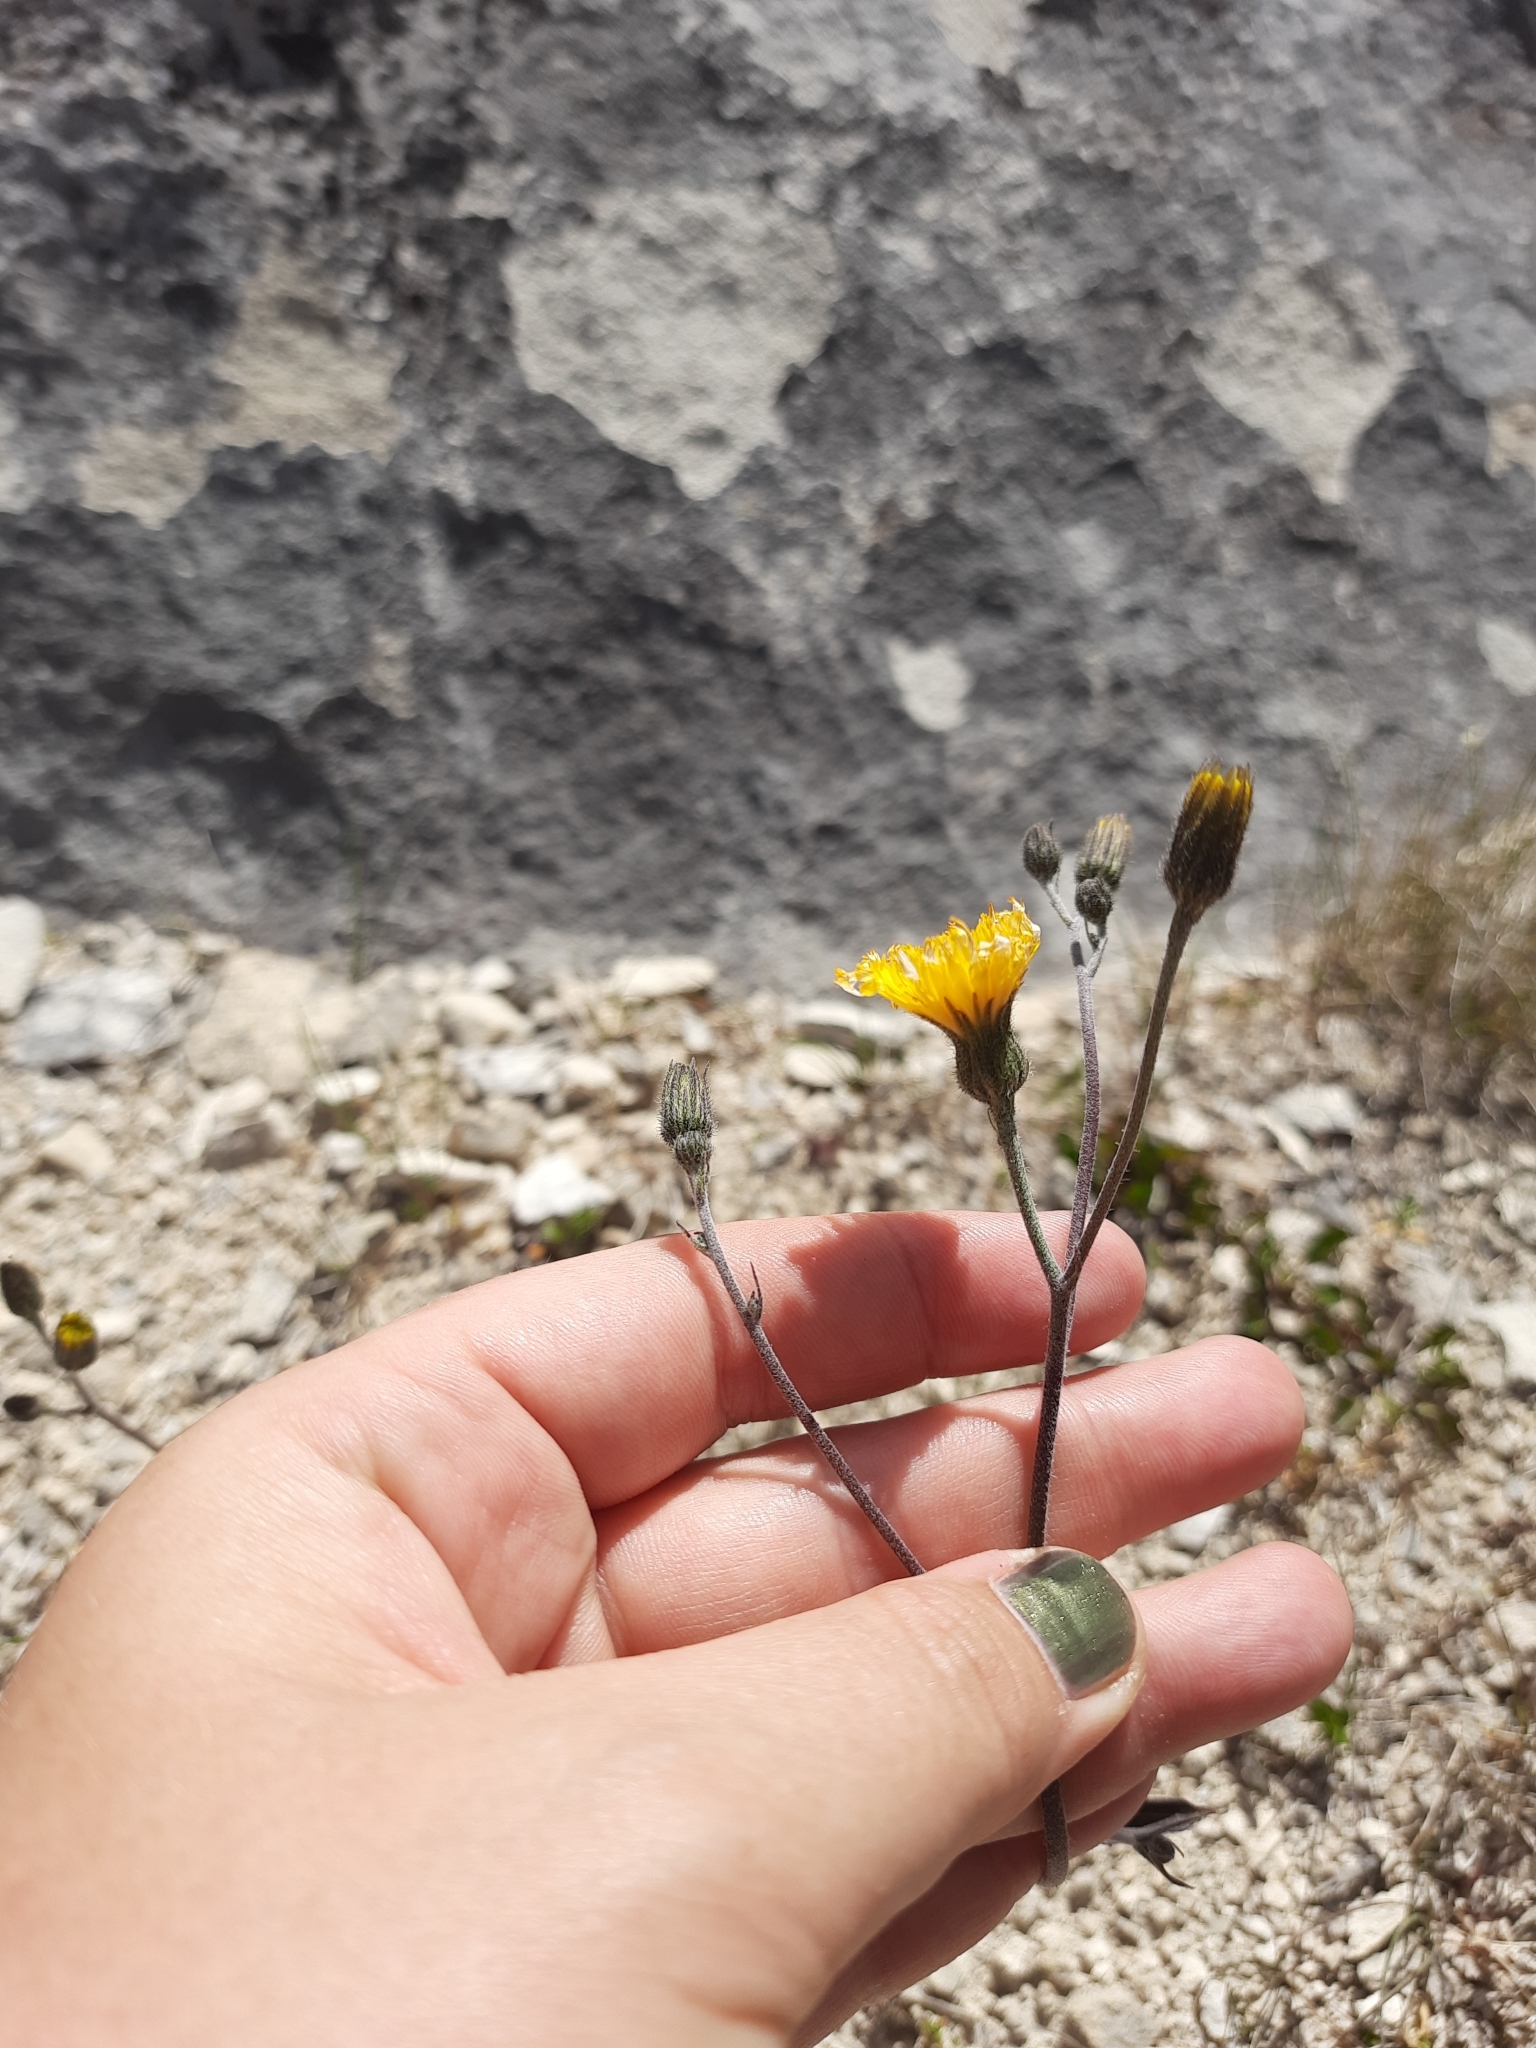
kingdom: Plantae
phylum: Tracheophyta
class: Magnoliopsida
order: Asterales
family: Asteraceae
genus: Hieracium
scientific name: Hieracium lepidulum
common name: Irregular-toothed hawkweed
